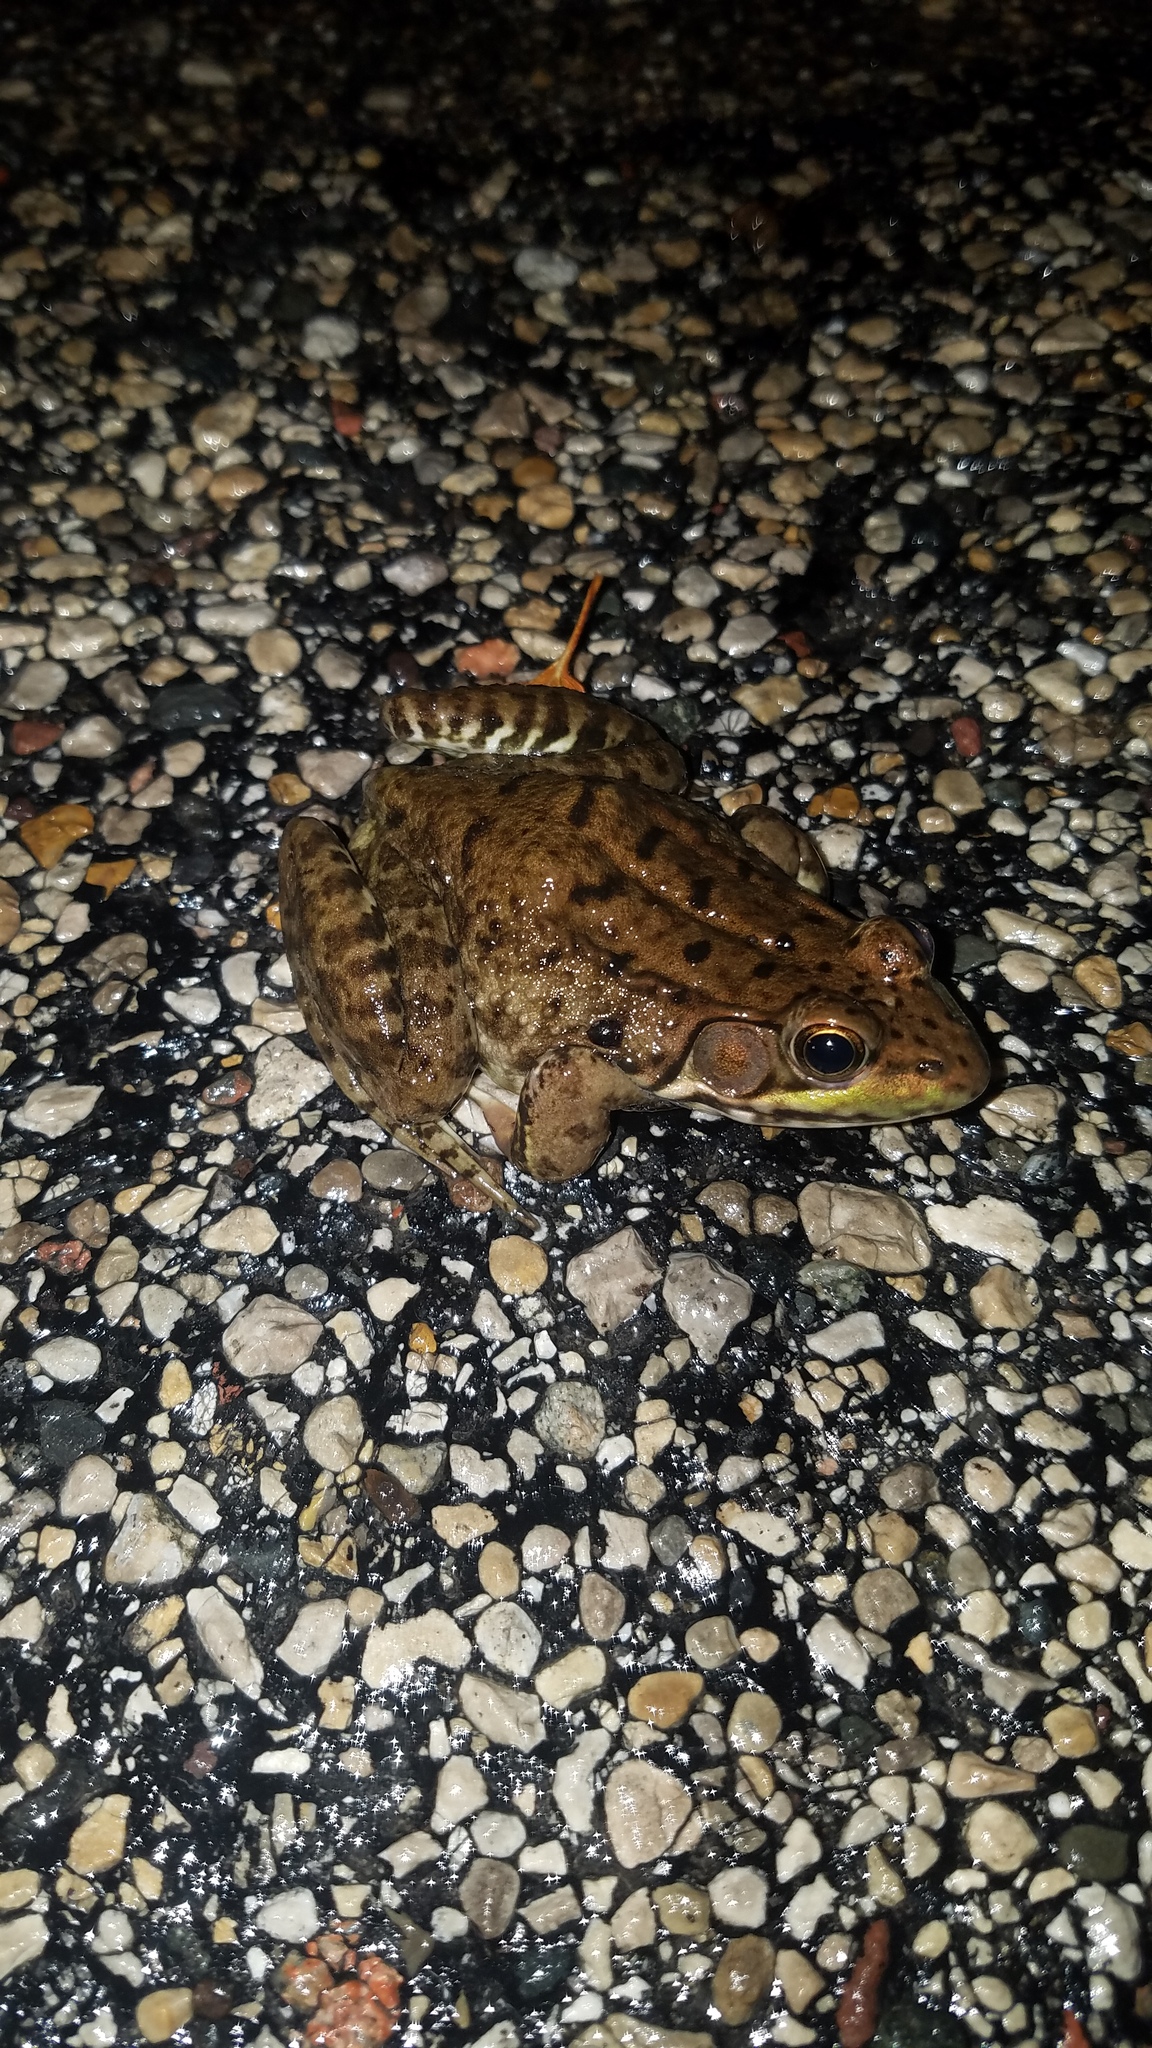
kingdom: Animalia
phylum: Chordata
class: Amphibia
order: Anura
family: Ranidae
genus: Lithobates
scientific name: Lithobates clamitans
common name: Green frog
